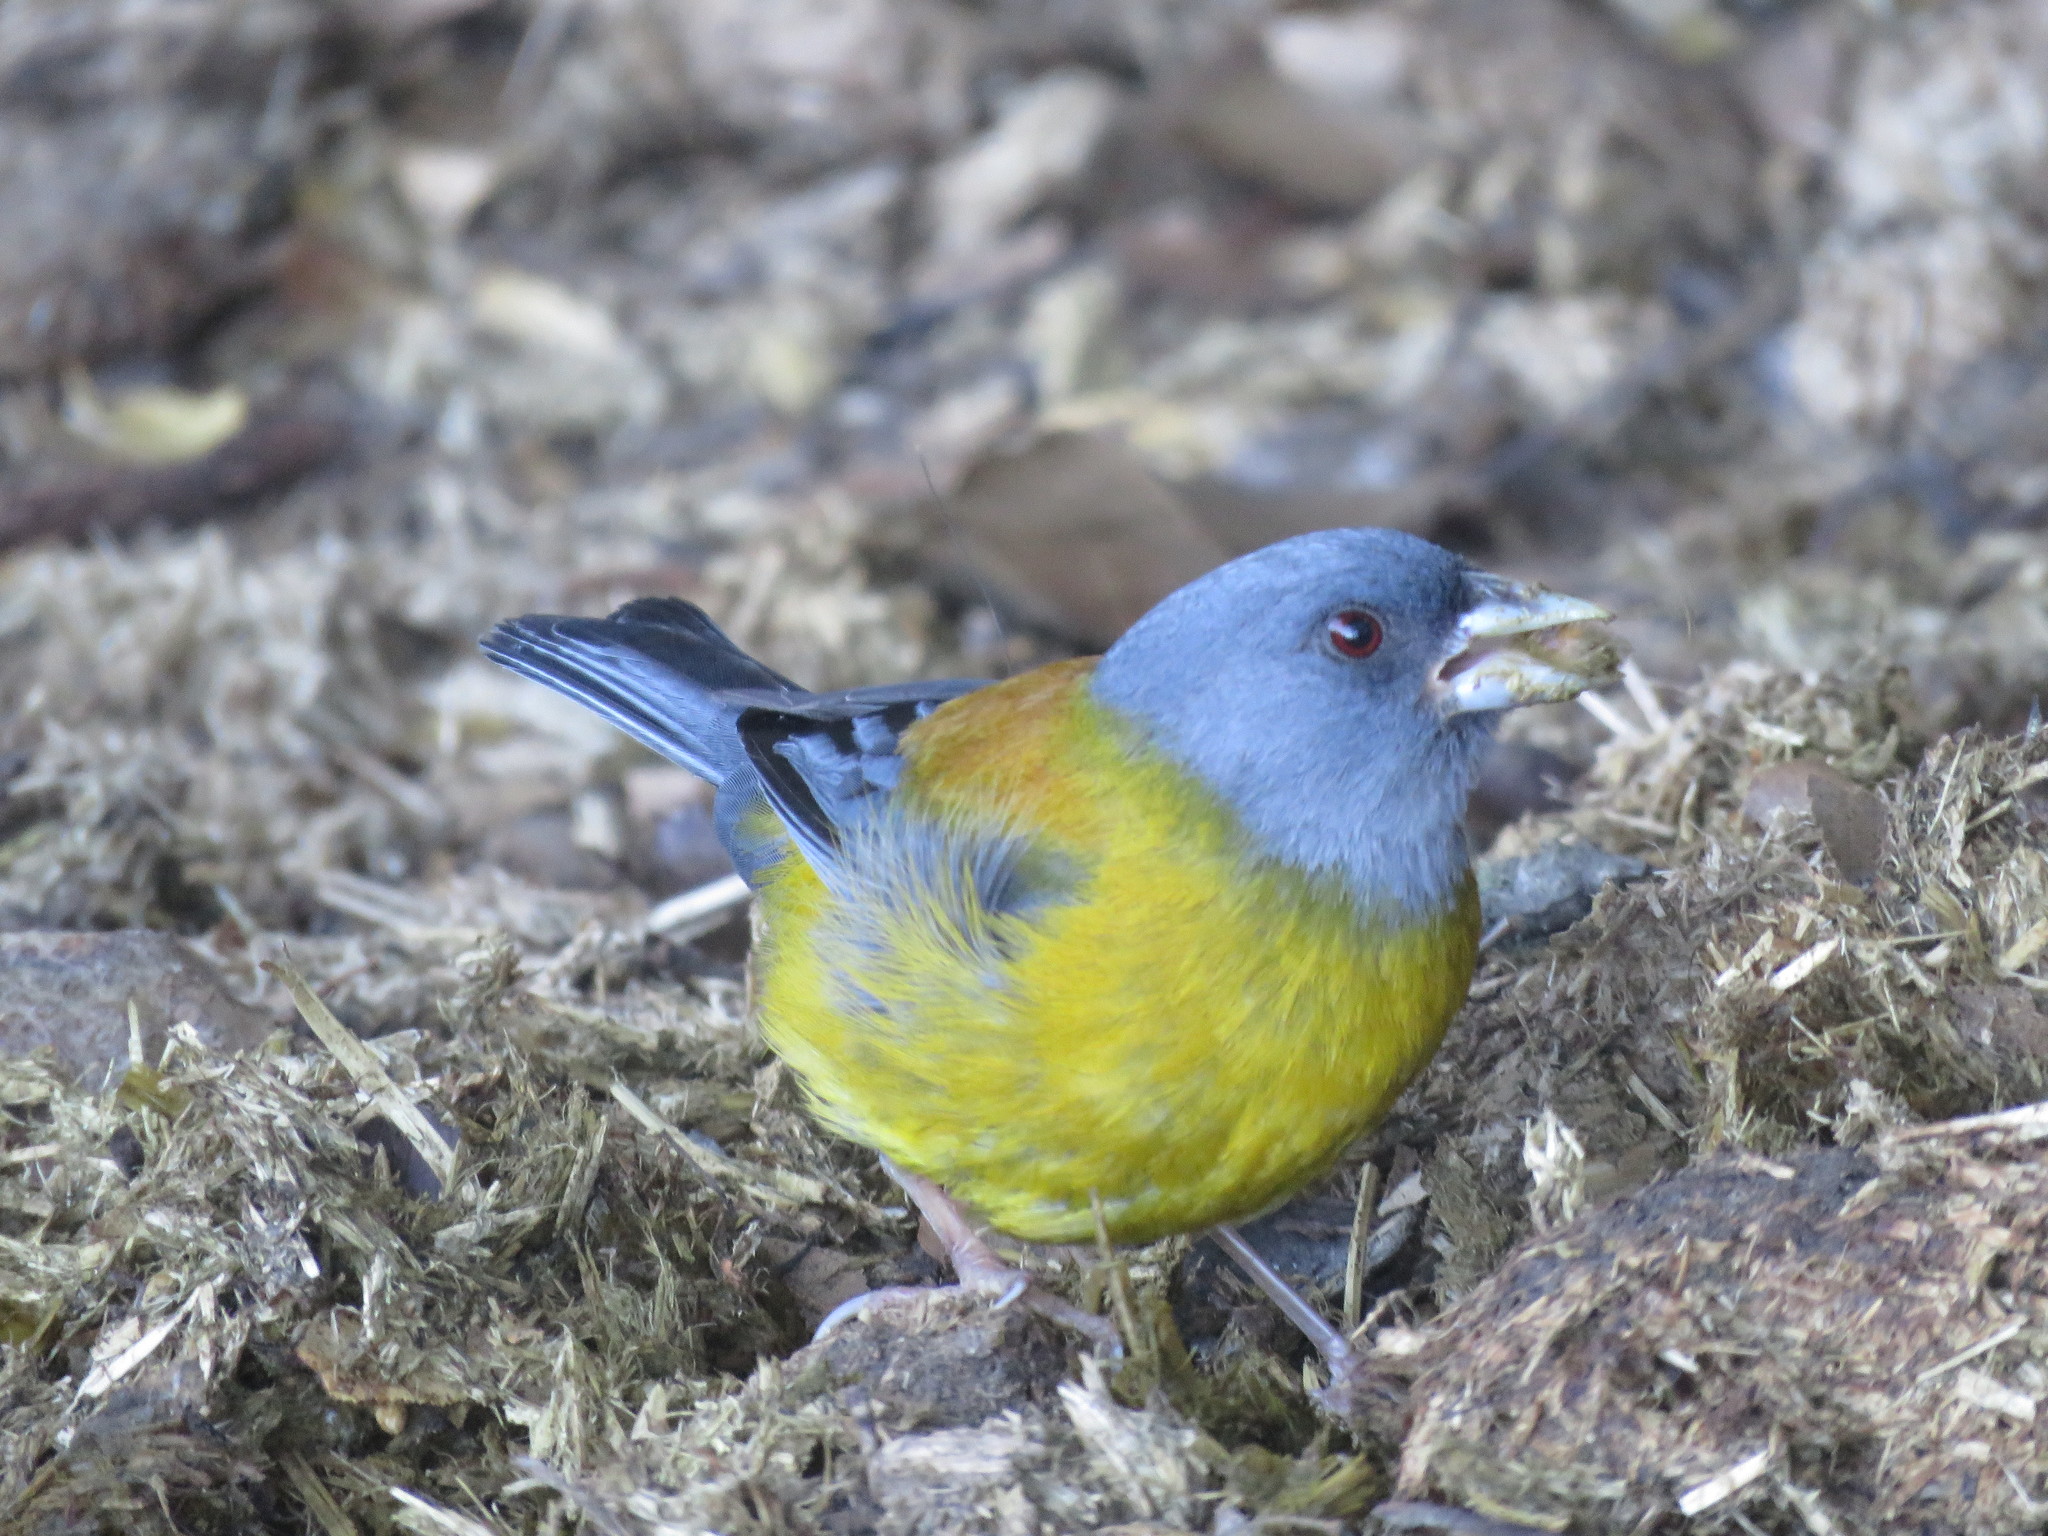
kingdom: Animalia
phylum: Chordata
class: Aves
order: Passeriformes
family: Thraupidae
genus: Phrygilus
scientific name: Phrygilus patagonicus
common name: Patagonian sierra finch
